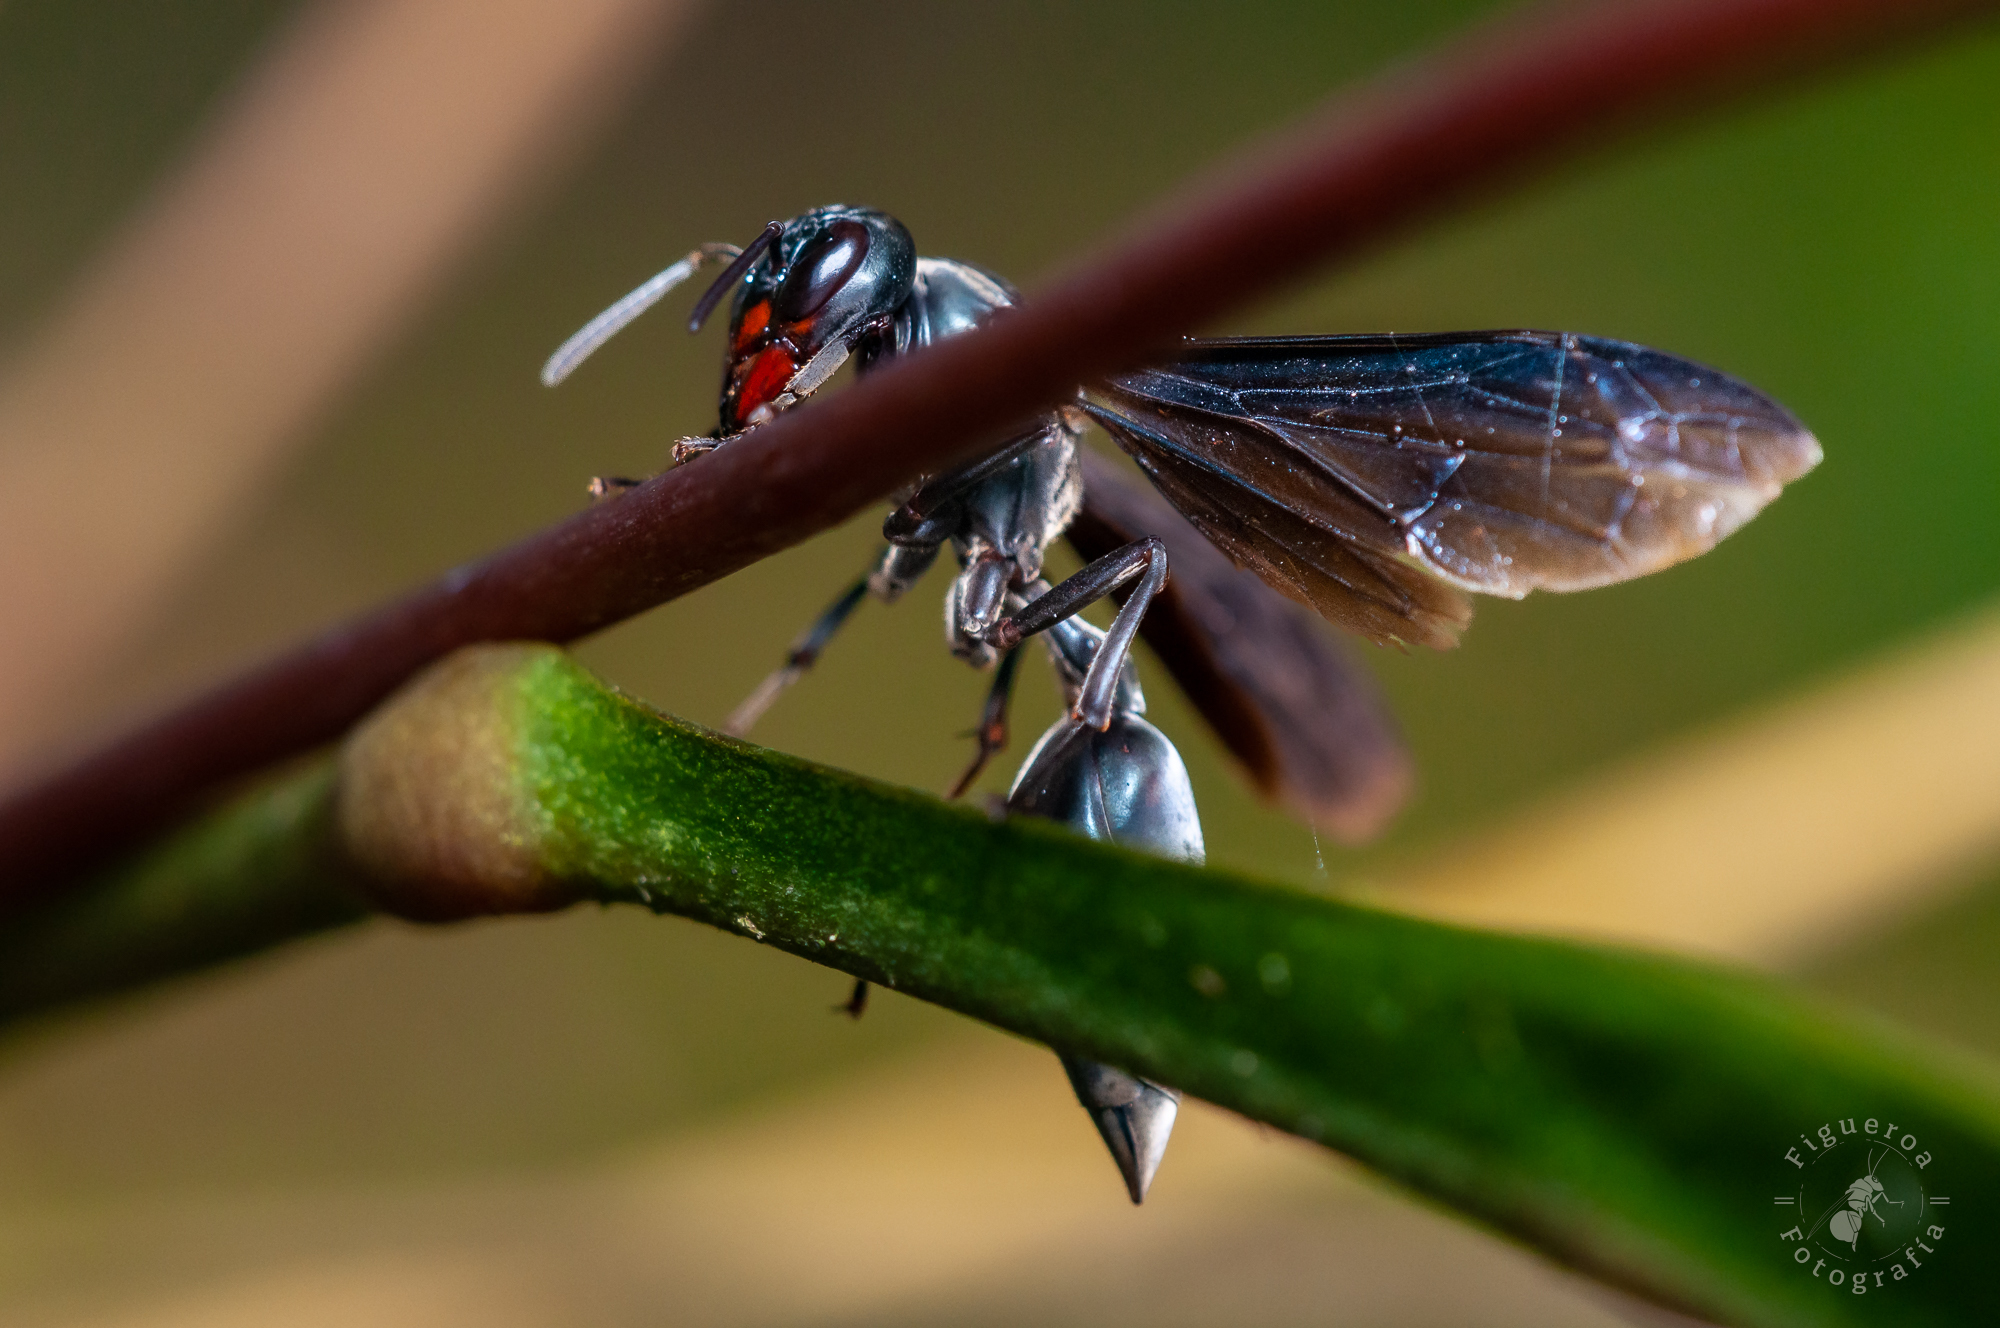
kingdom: Animalia
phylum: Arthropoda
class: Insecta
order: Hymenoptera
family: Vespidae
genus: Synoeca
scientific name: Synoeca septentrionalis
